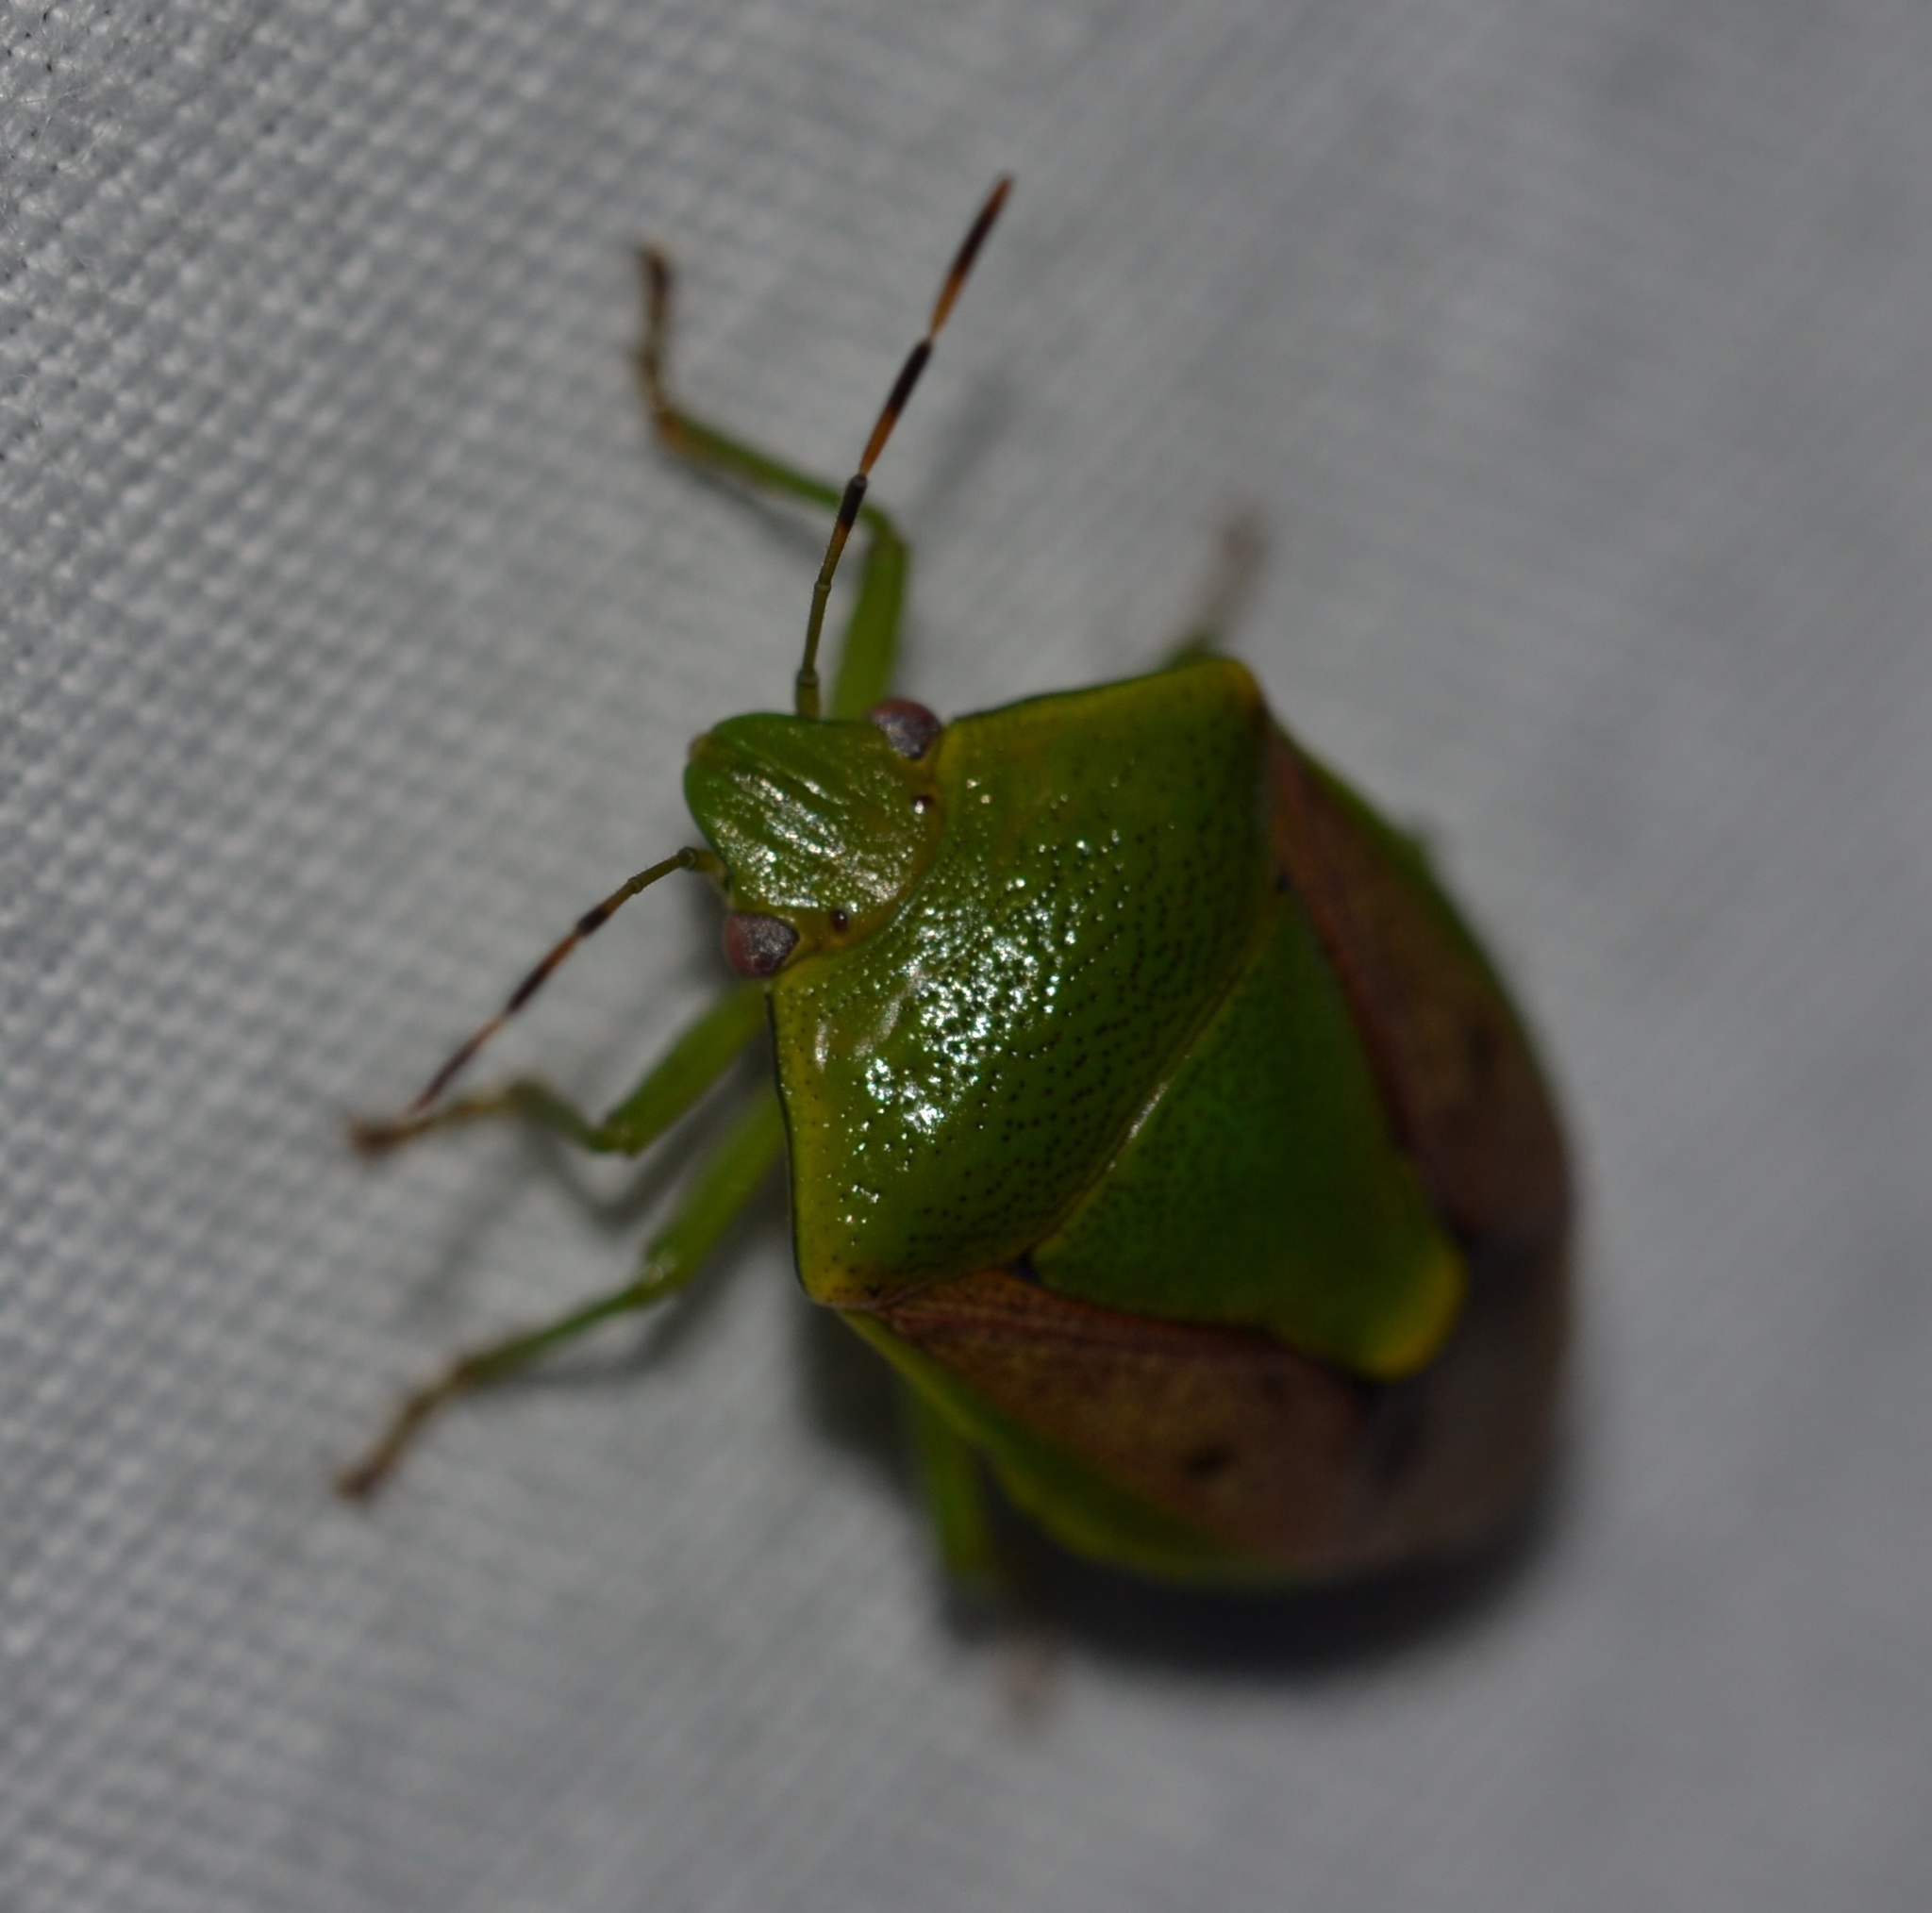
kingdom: Animalia
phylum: Arthropoda
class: Insecta
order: Hemiptera
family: Pentatomidae
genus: Plautia
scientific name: Plautia stali
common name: Stink bug
